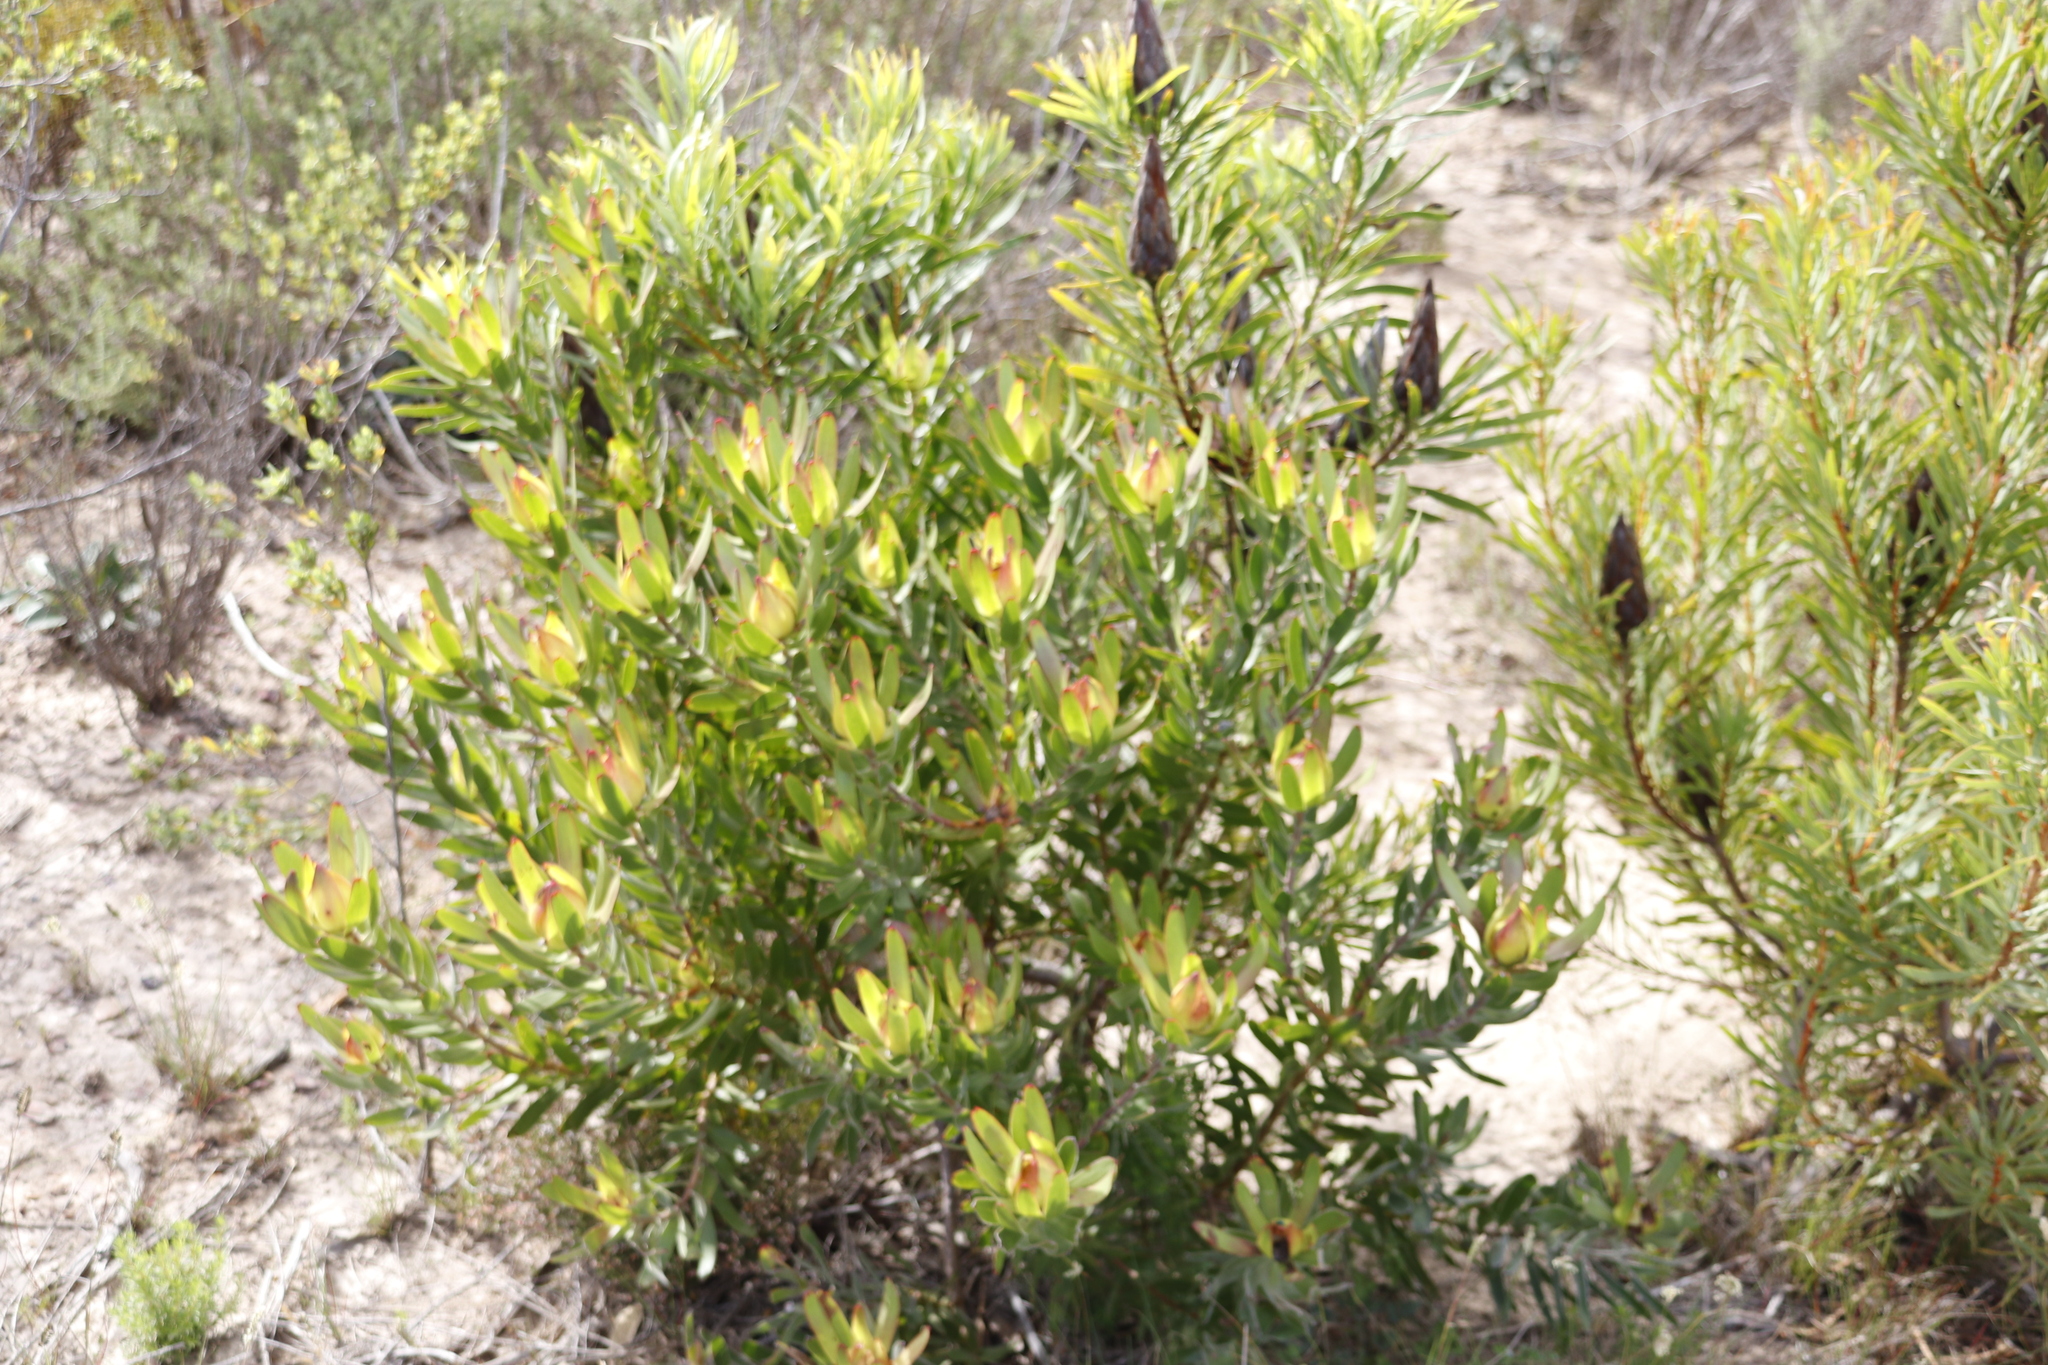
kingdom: Plantae
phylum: Tracheophyta
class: Magnoliopsida
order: Proteales
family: Proteaceae
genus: Protea
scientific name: Protea repens
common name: Sugarbush
